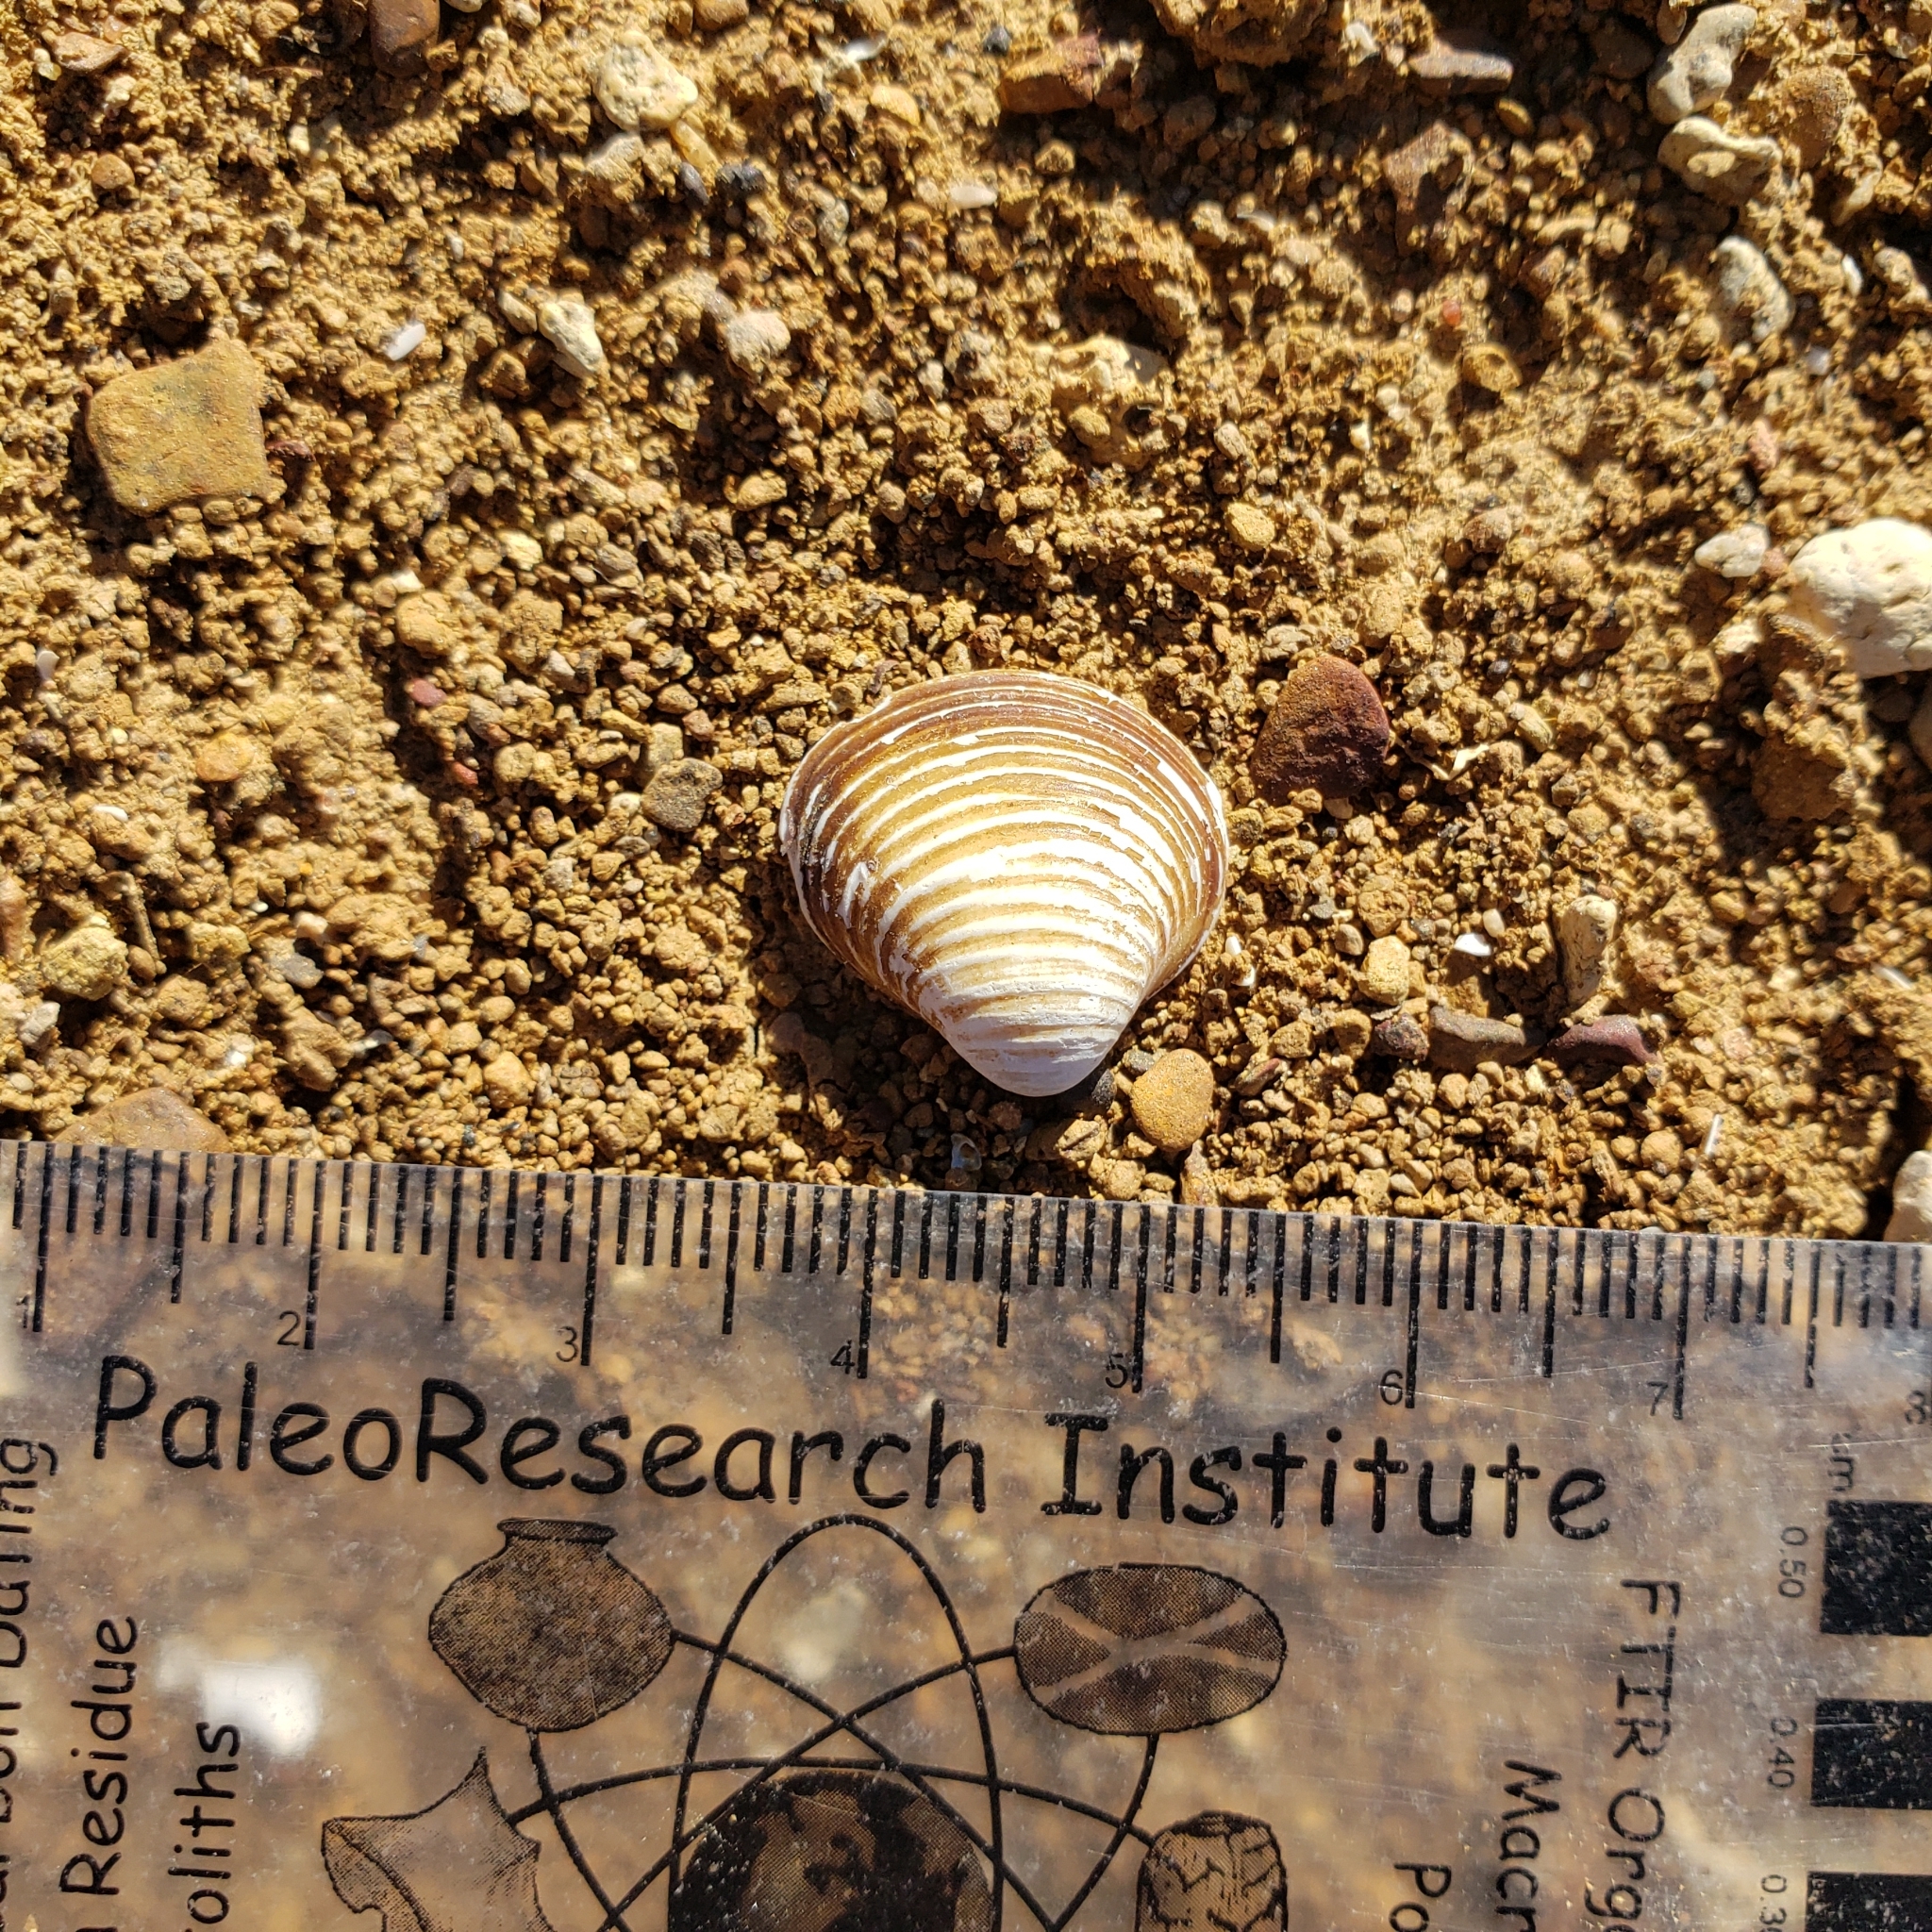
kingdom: Animalia
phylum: Mollusca
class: Bivalvia
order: Venerida
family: Cyrenidae
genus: Corbicula
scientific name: Corbicula fluminea
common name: Asian clam
